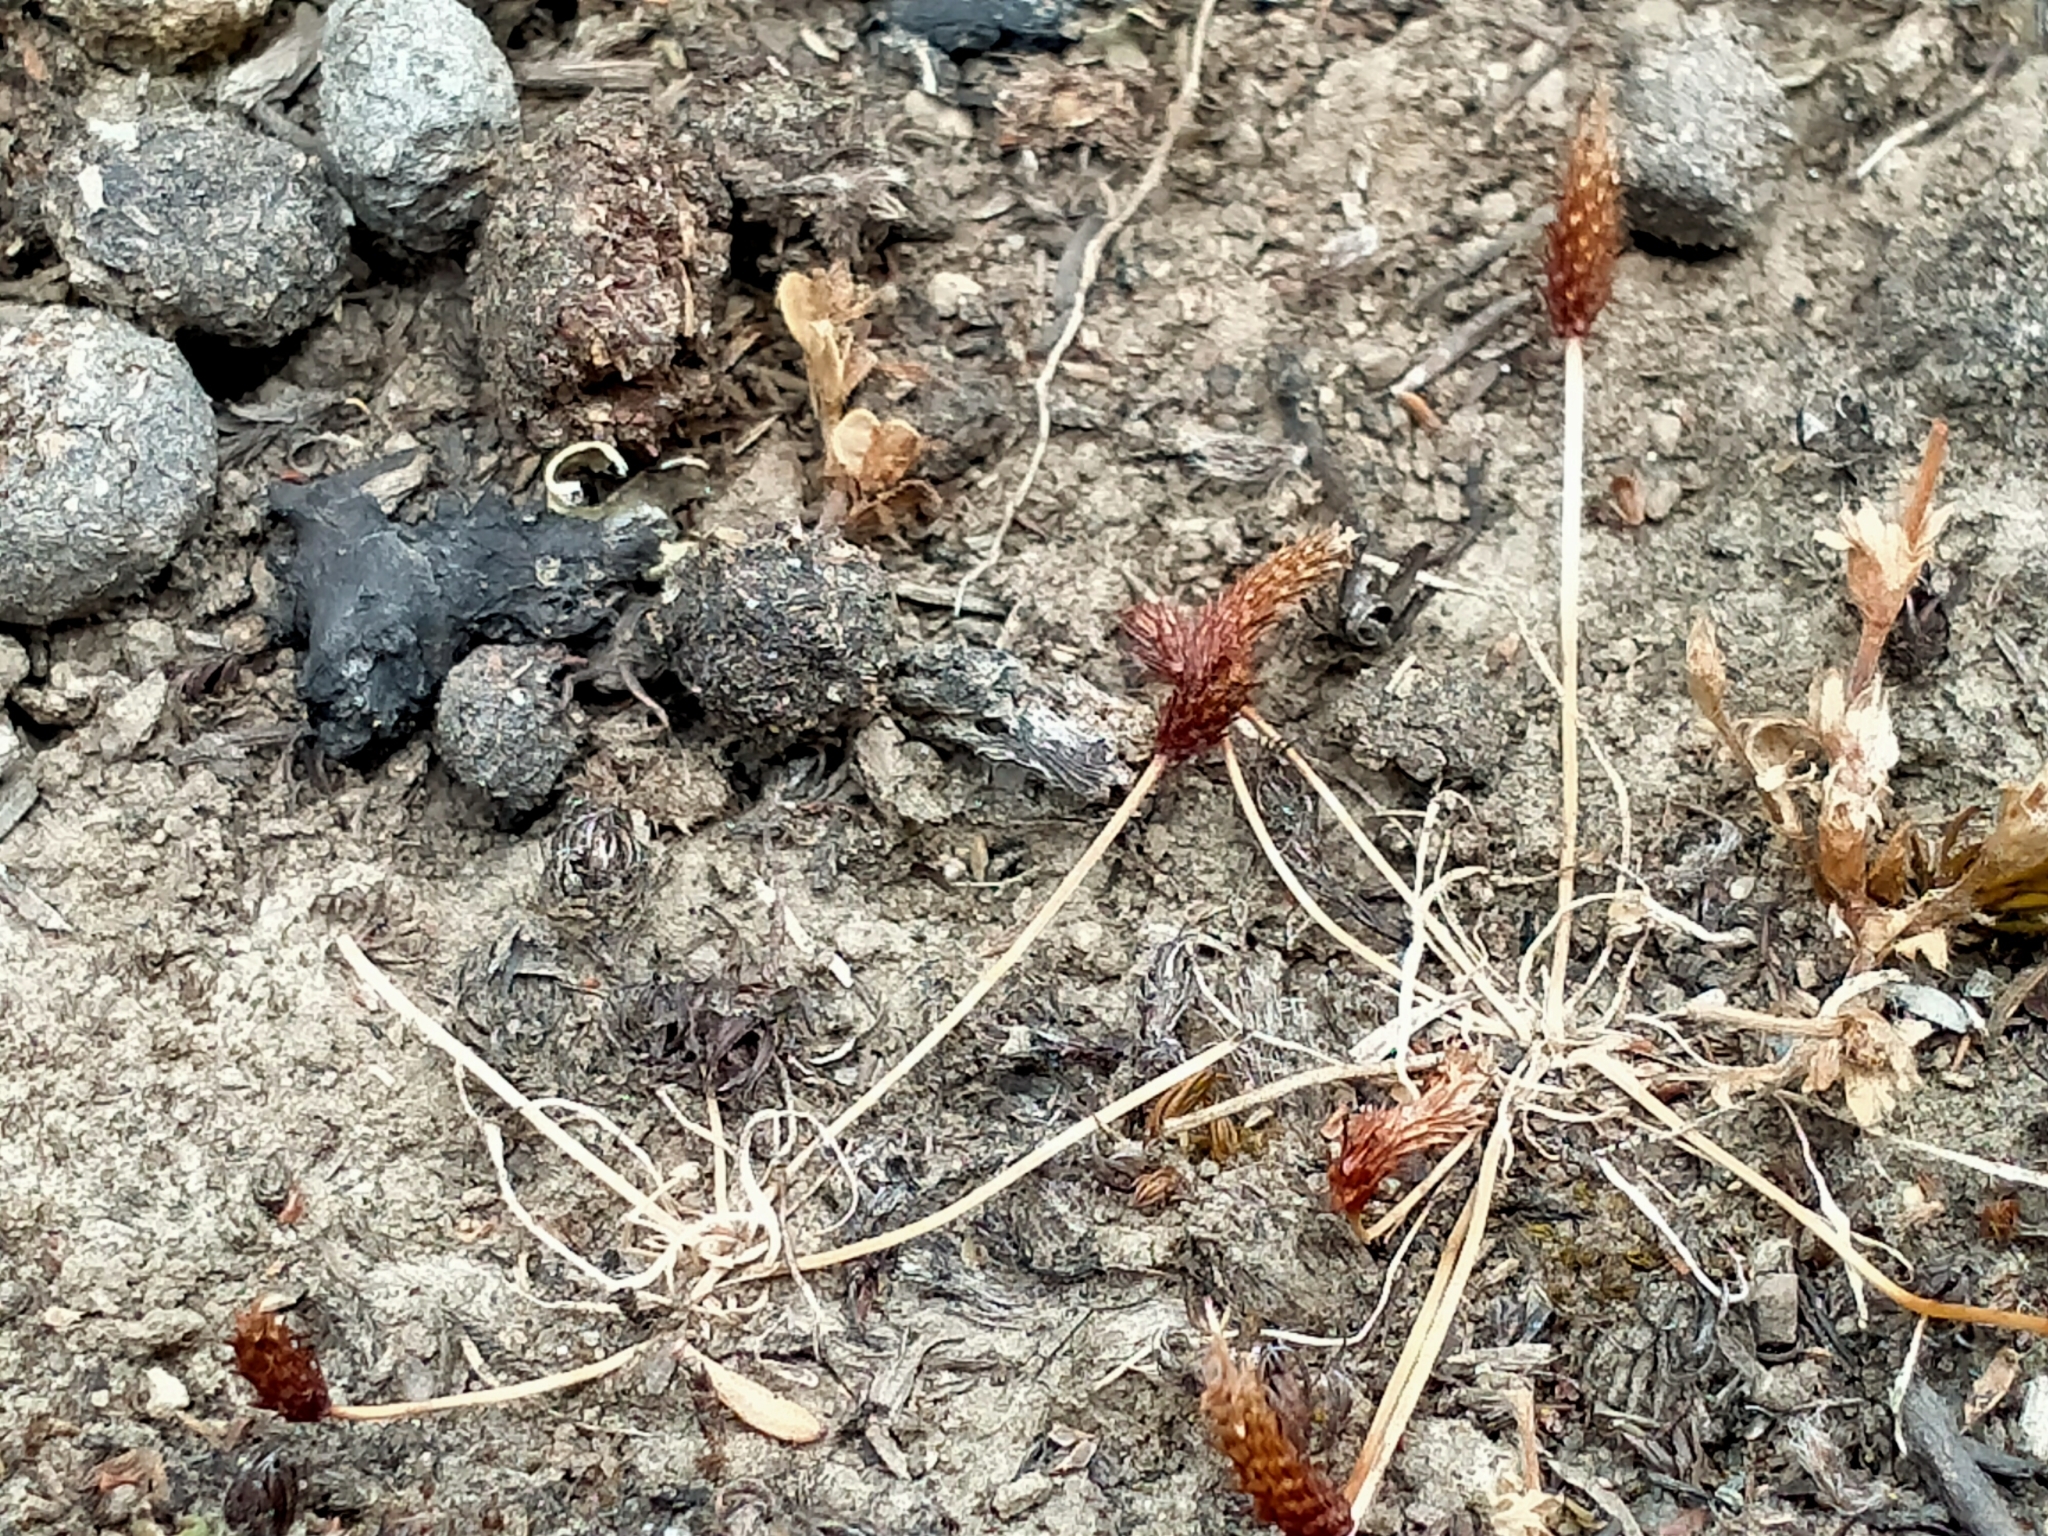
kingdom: Plantae
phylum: Tracheophyta
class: Magnoliopsida
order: Ranunculales
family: Ranunculaceae
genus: Myosurus
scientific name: Myosurus minimus
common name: Mousetail
